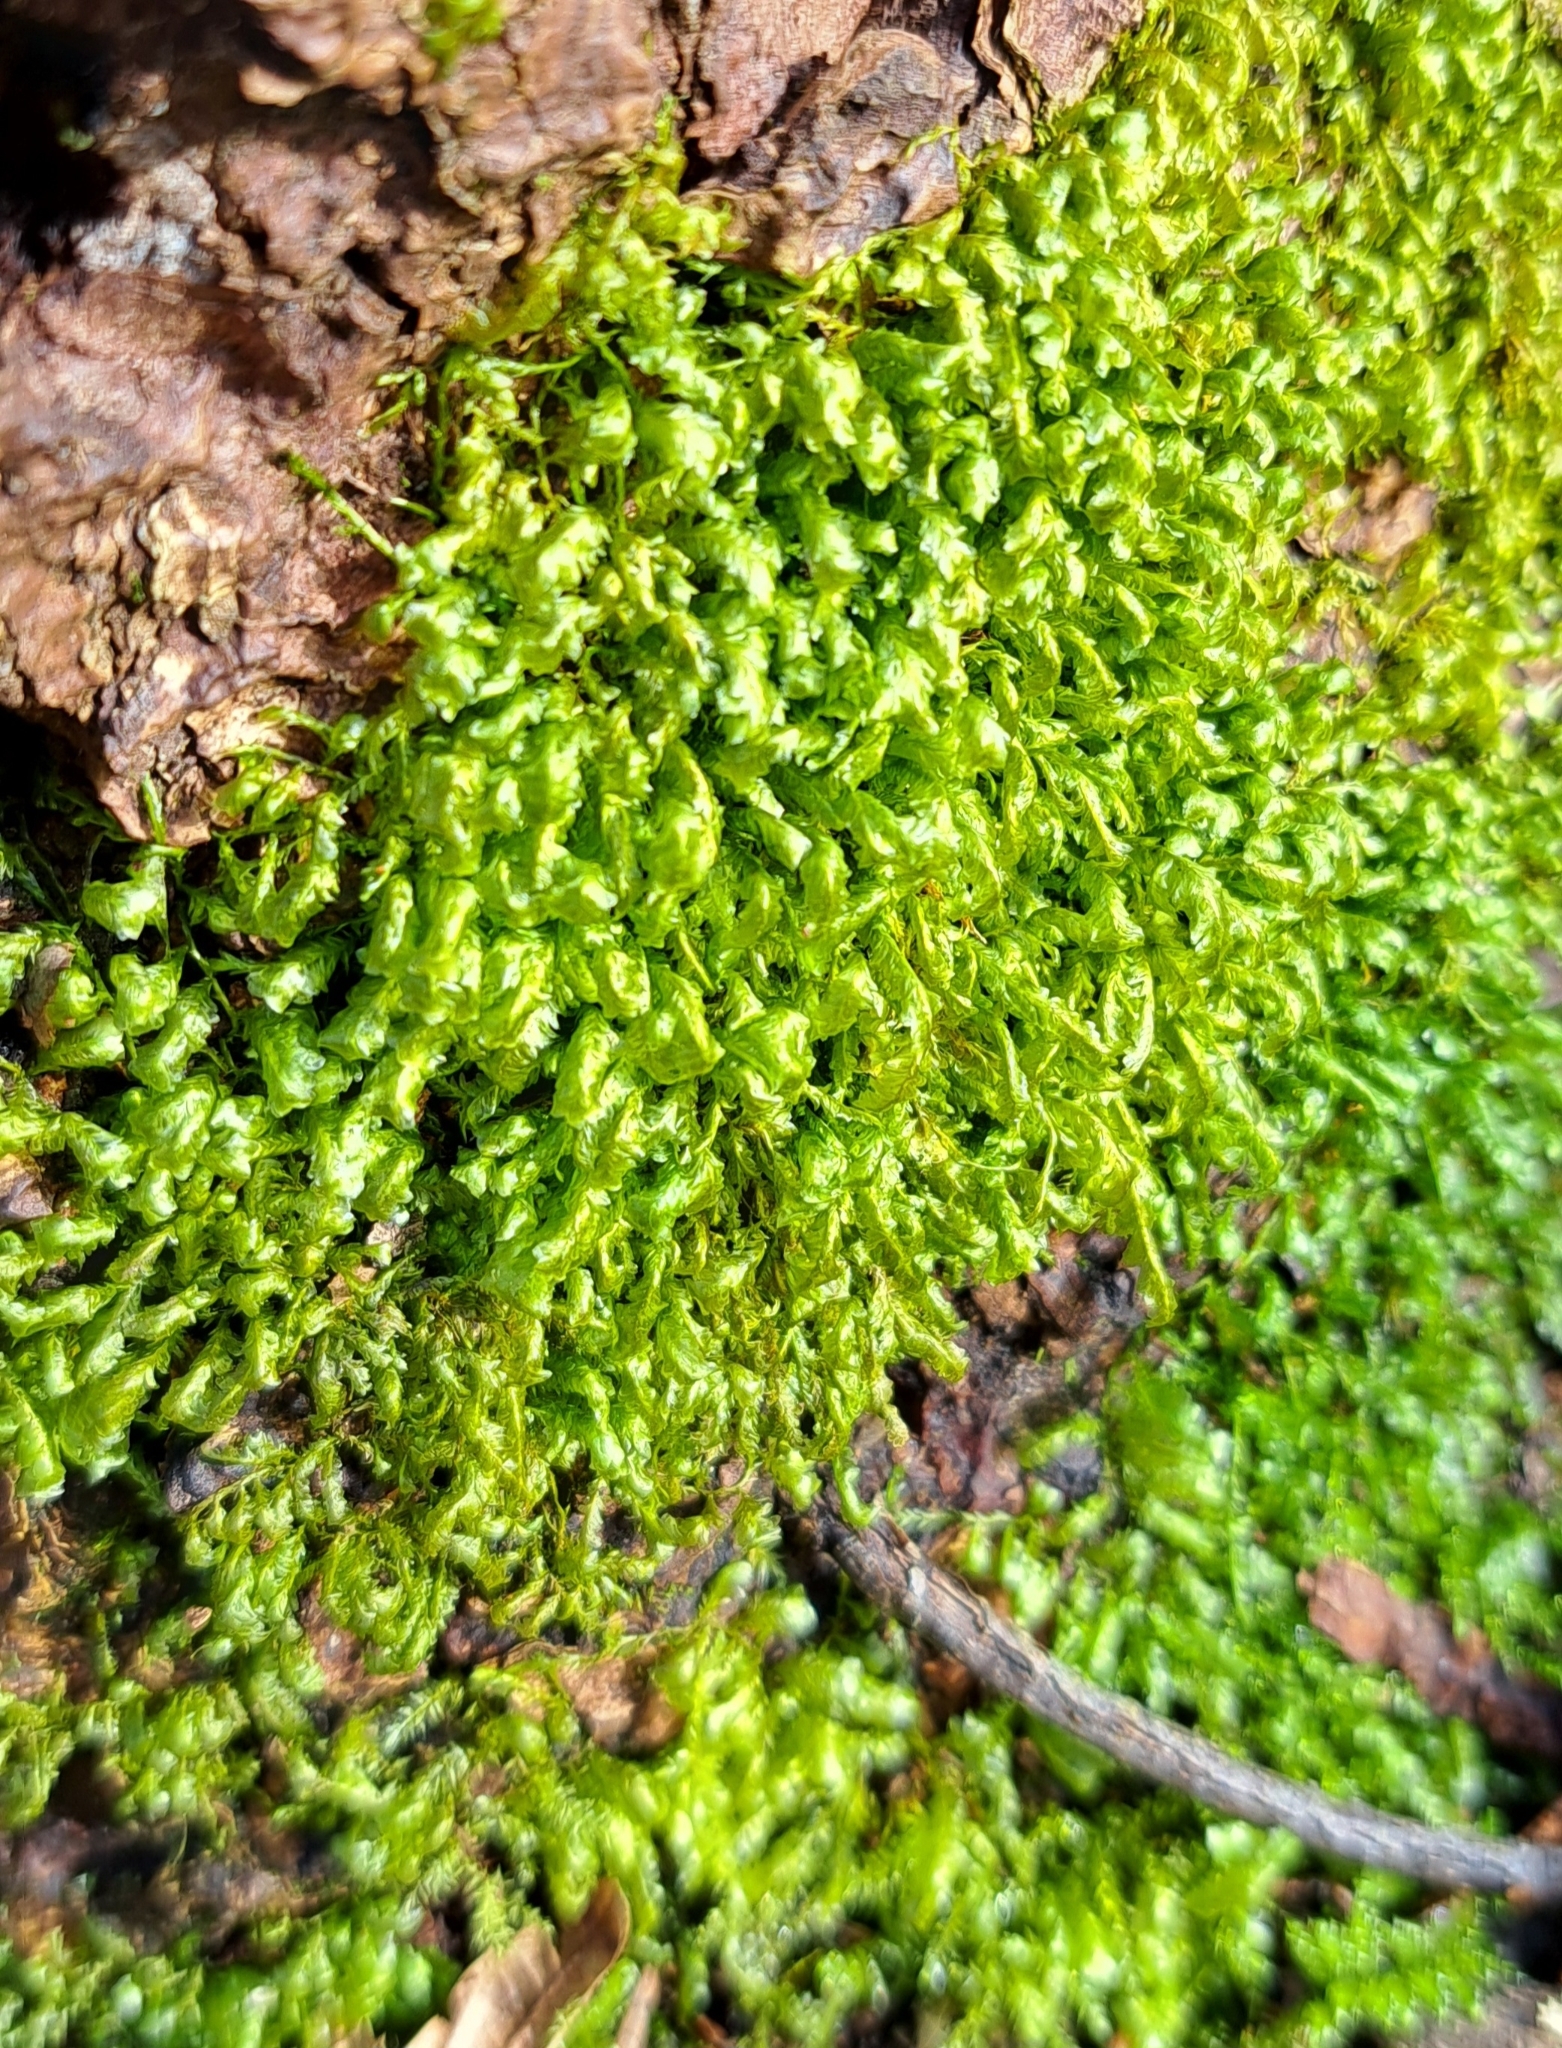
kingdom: Plantae
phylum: Bryophyta
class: Bryopsida
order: Hypnales
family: Neckeraceae
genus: Homalia
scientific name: Homalia trichomanoides
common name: Lime homalia moss
